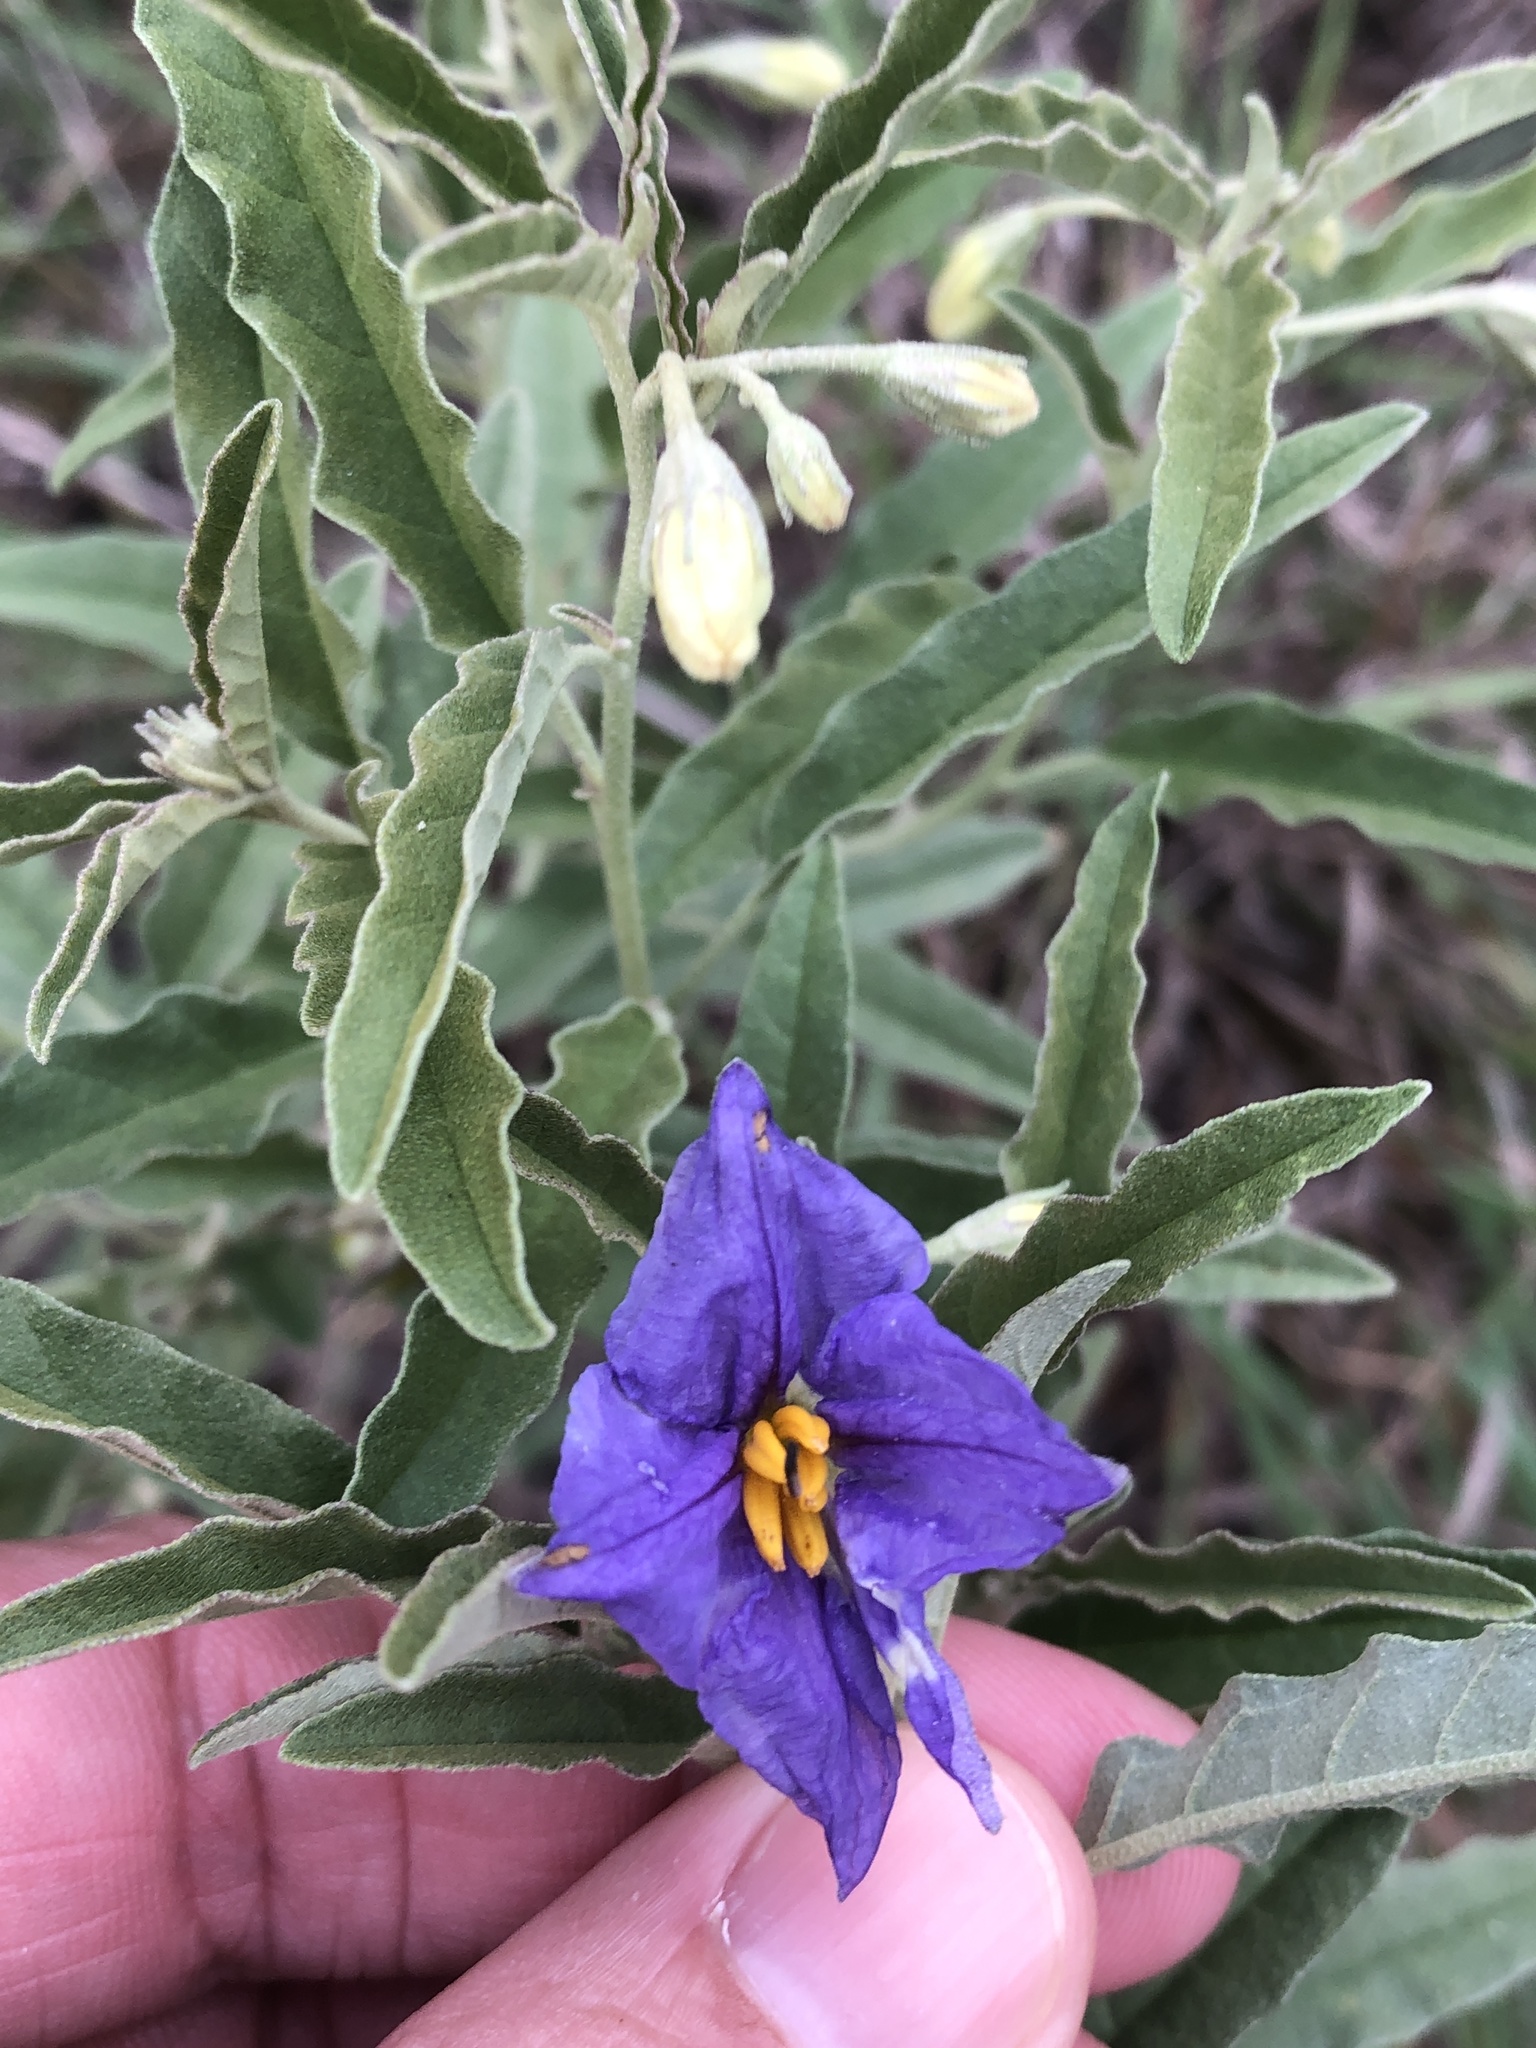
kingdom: Plantae
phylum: Tracheophyta
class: Magnoliopsida
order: Solanales
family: Solanaceae
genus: Solanum
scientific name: Solanum elaeagnifolium
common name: Silverleaf nightshade
